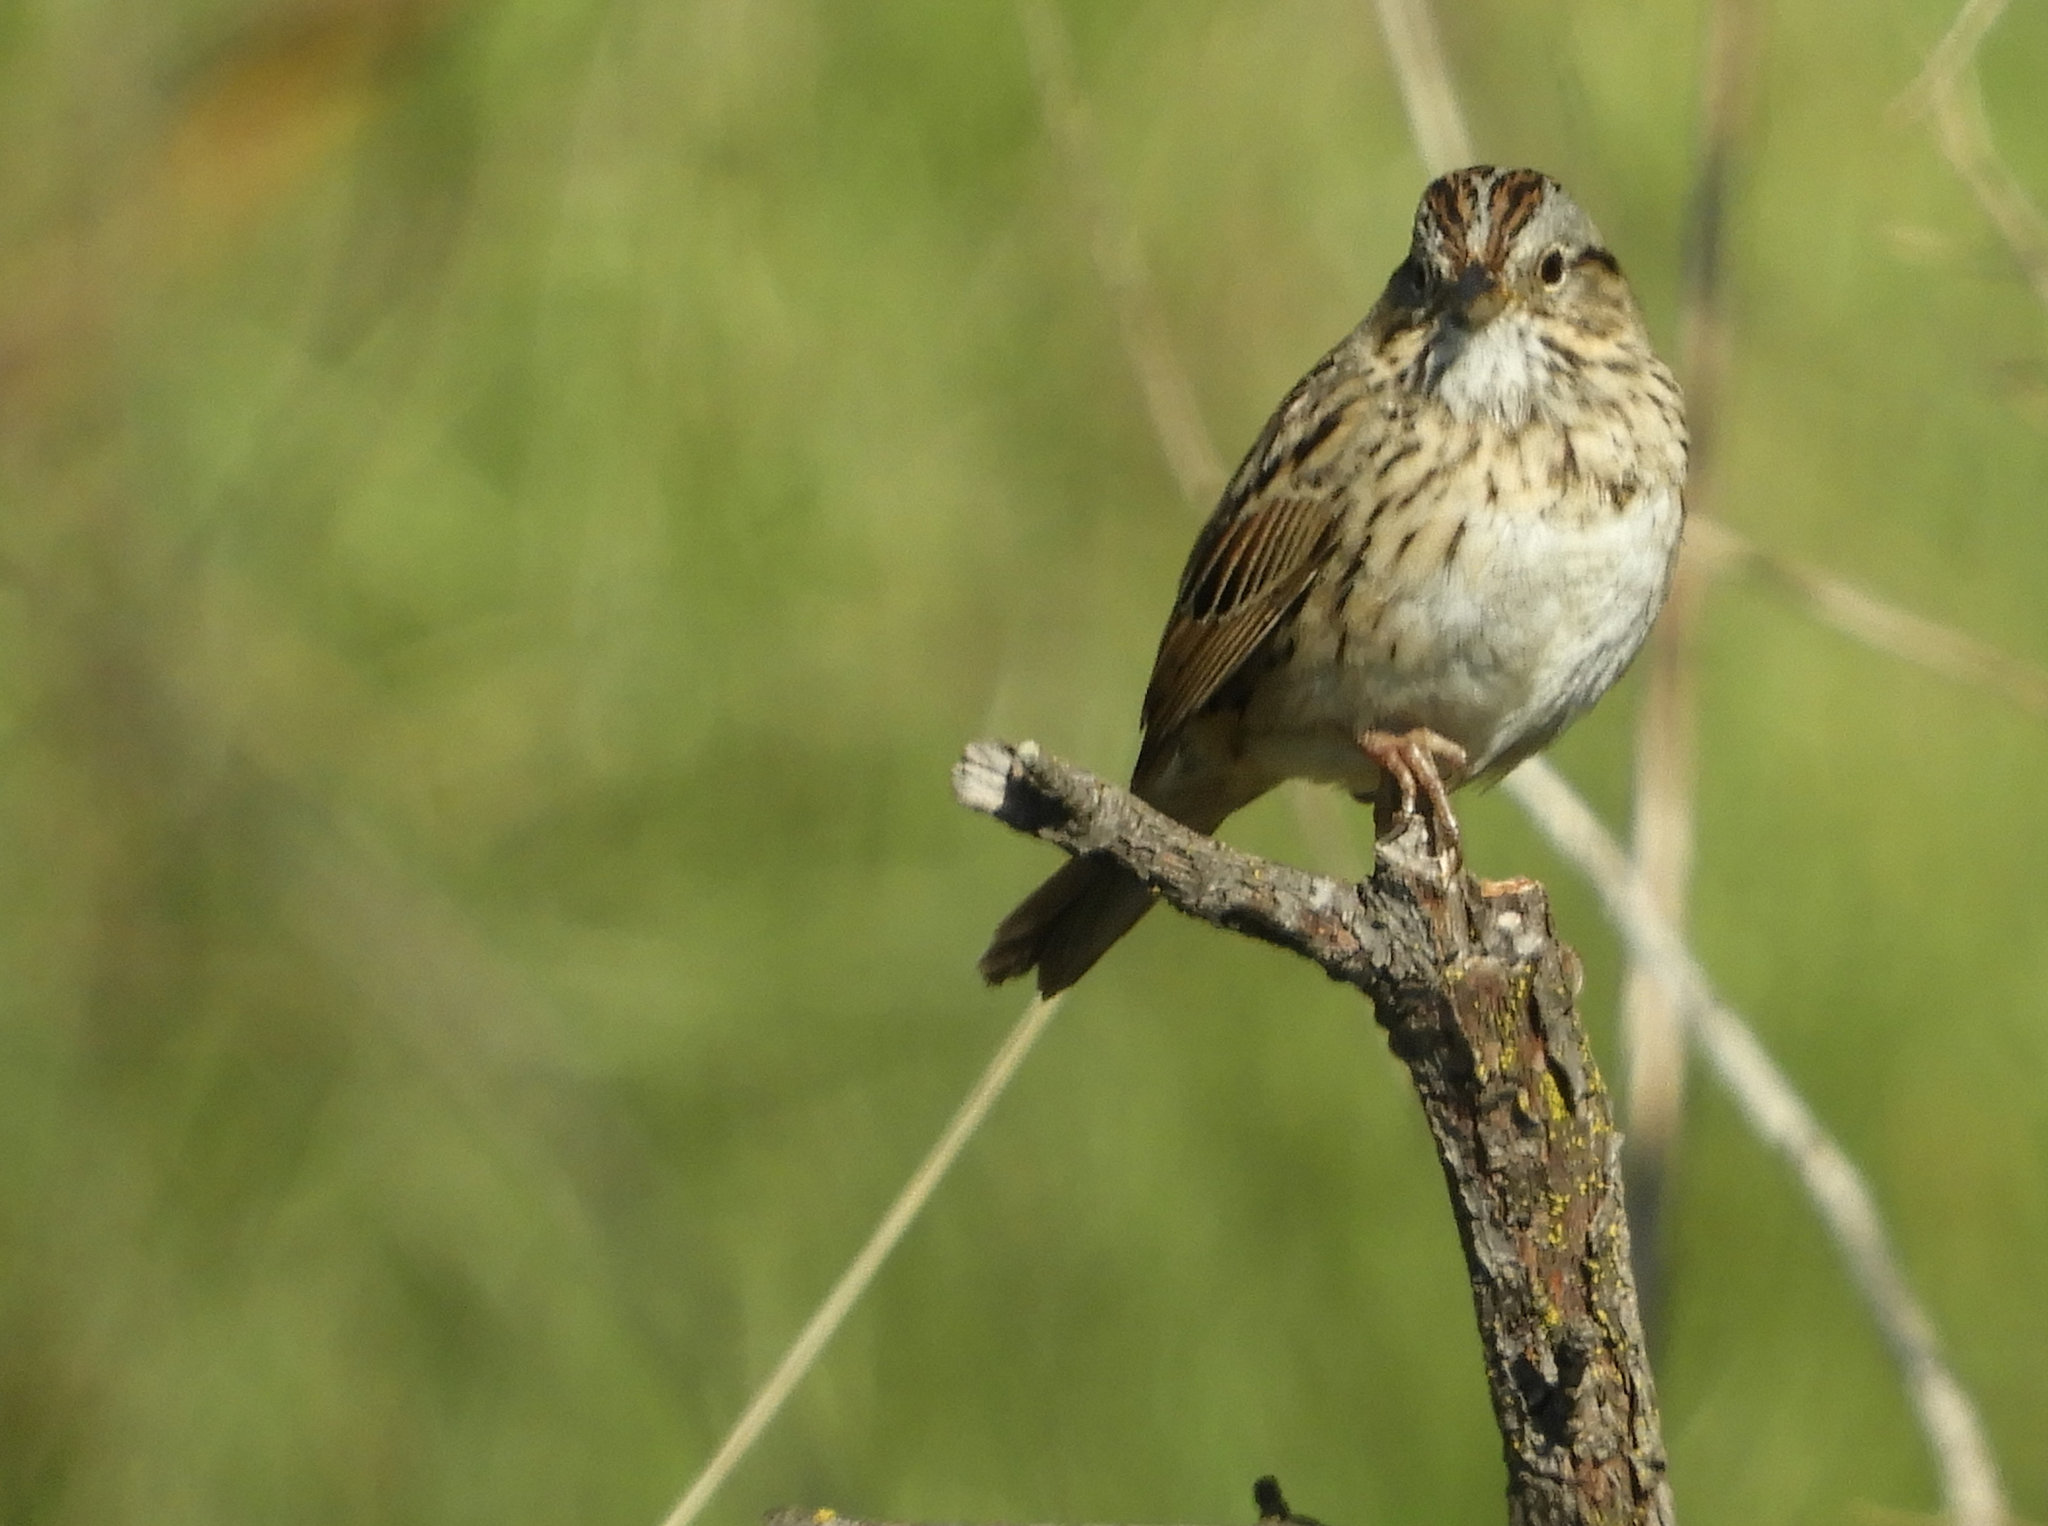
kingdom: Animalia
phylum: Chordata
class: Aves
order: Passeriformes
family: Passerellidae
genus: Melospiza
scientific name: Melospiza lincolnii
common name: Lincoln's sparrow
